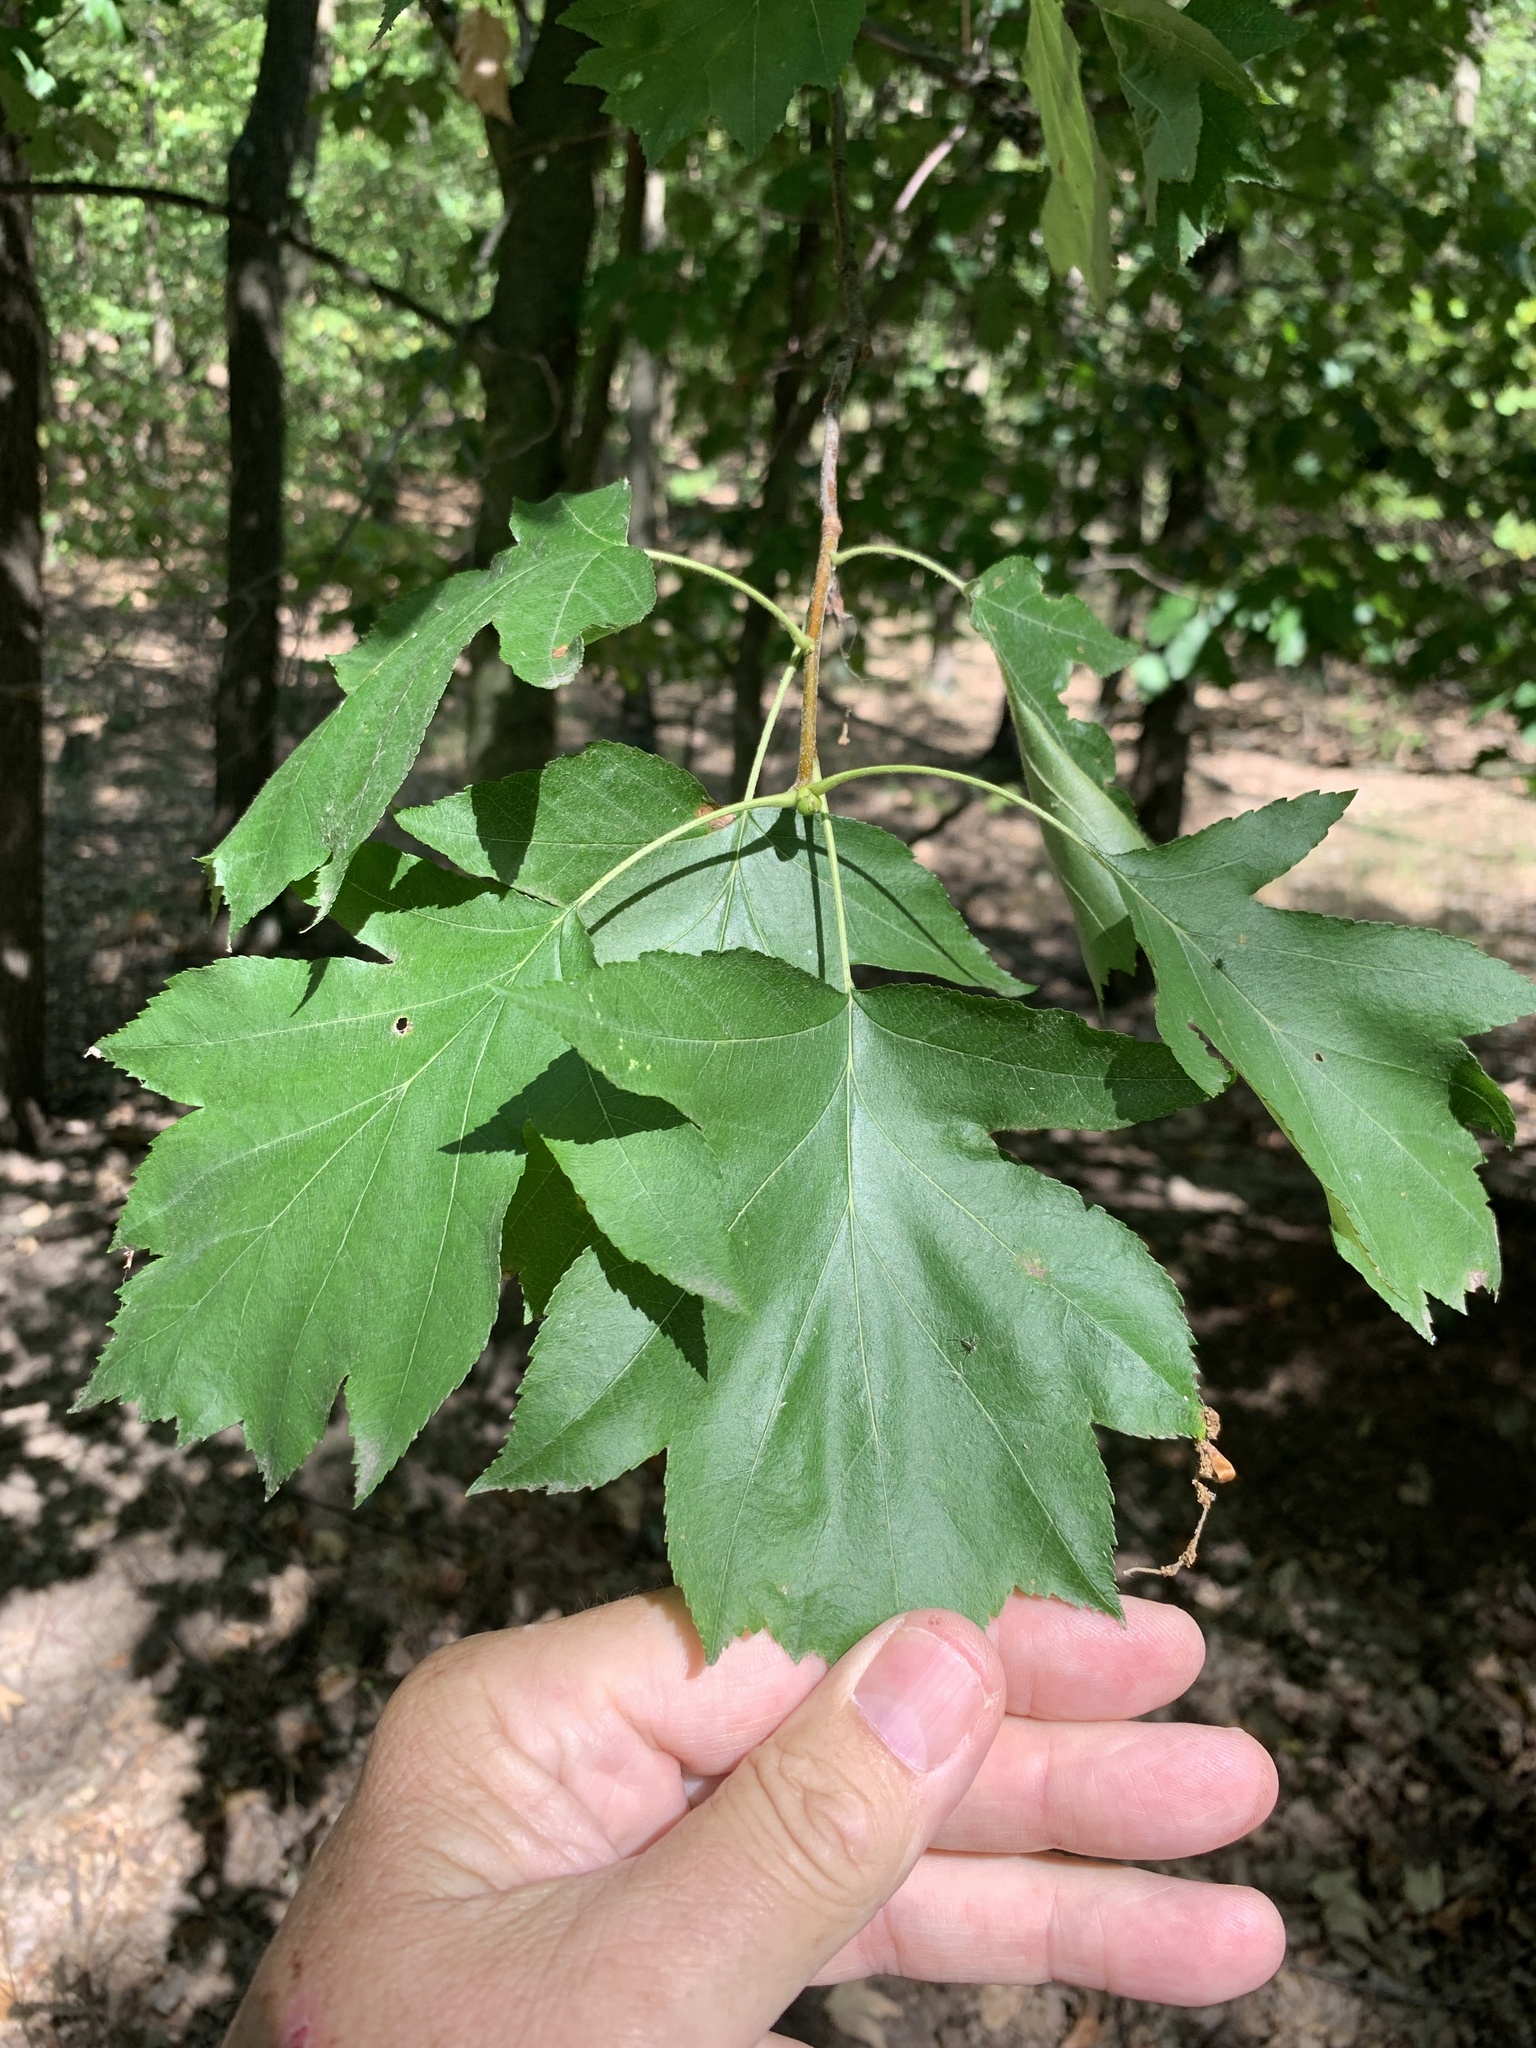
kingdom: Plantae
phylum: Tracheophyta
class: Magnoliopsida
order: Rosales
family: Rosaceae
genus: Torminalis
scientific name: Torminalis glaberrima
